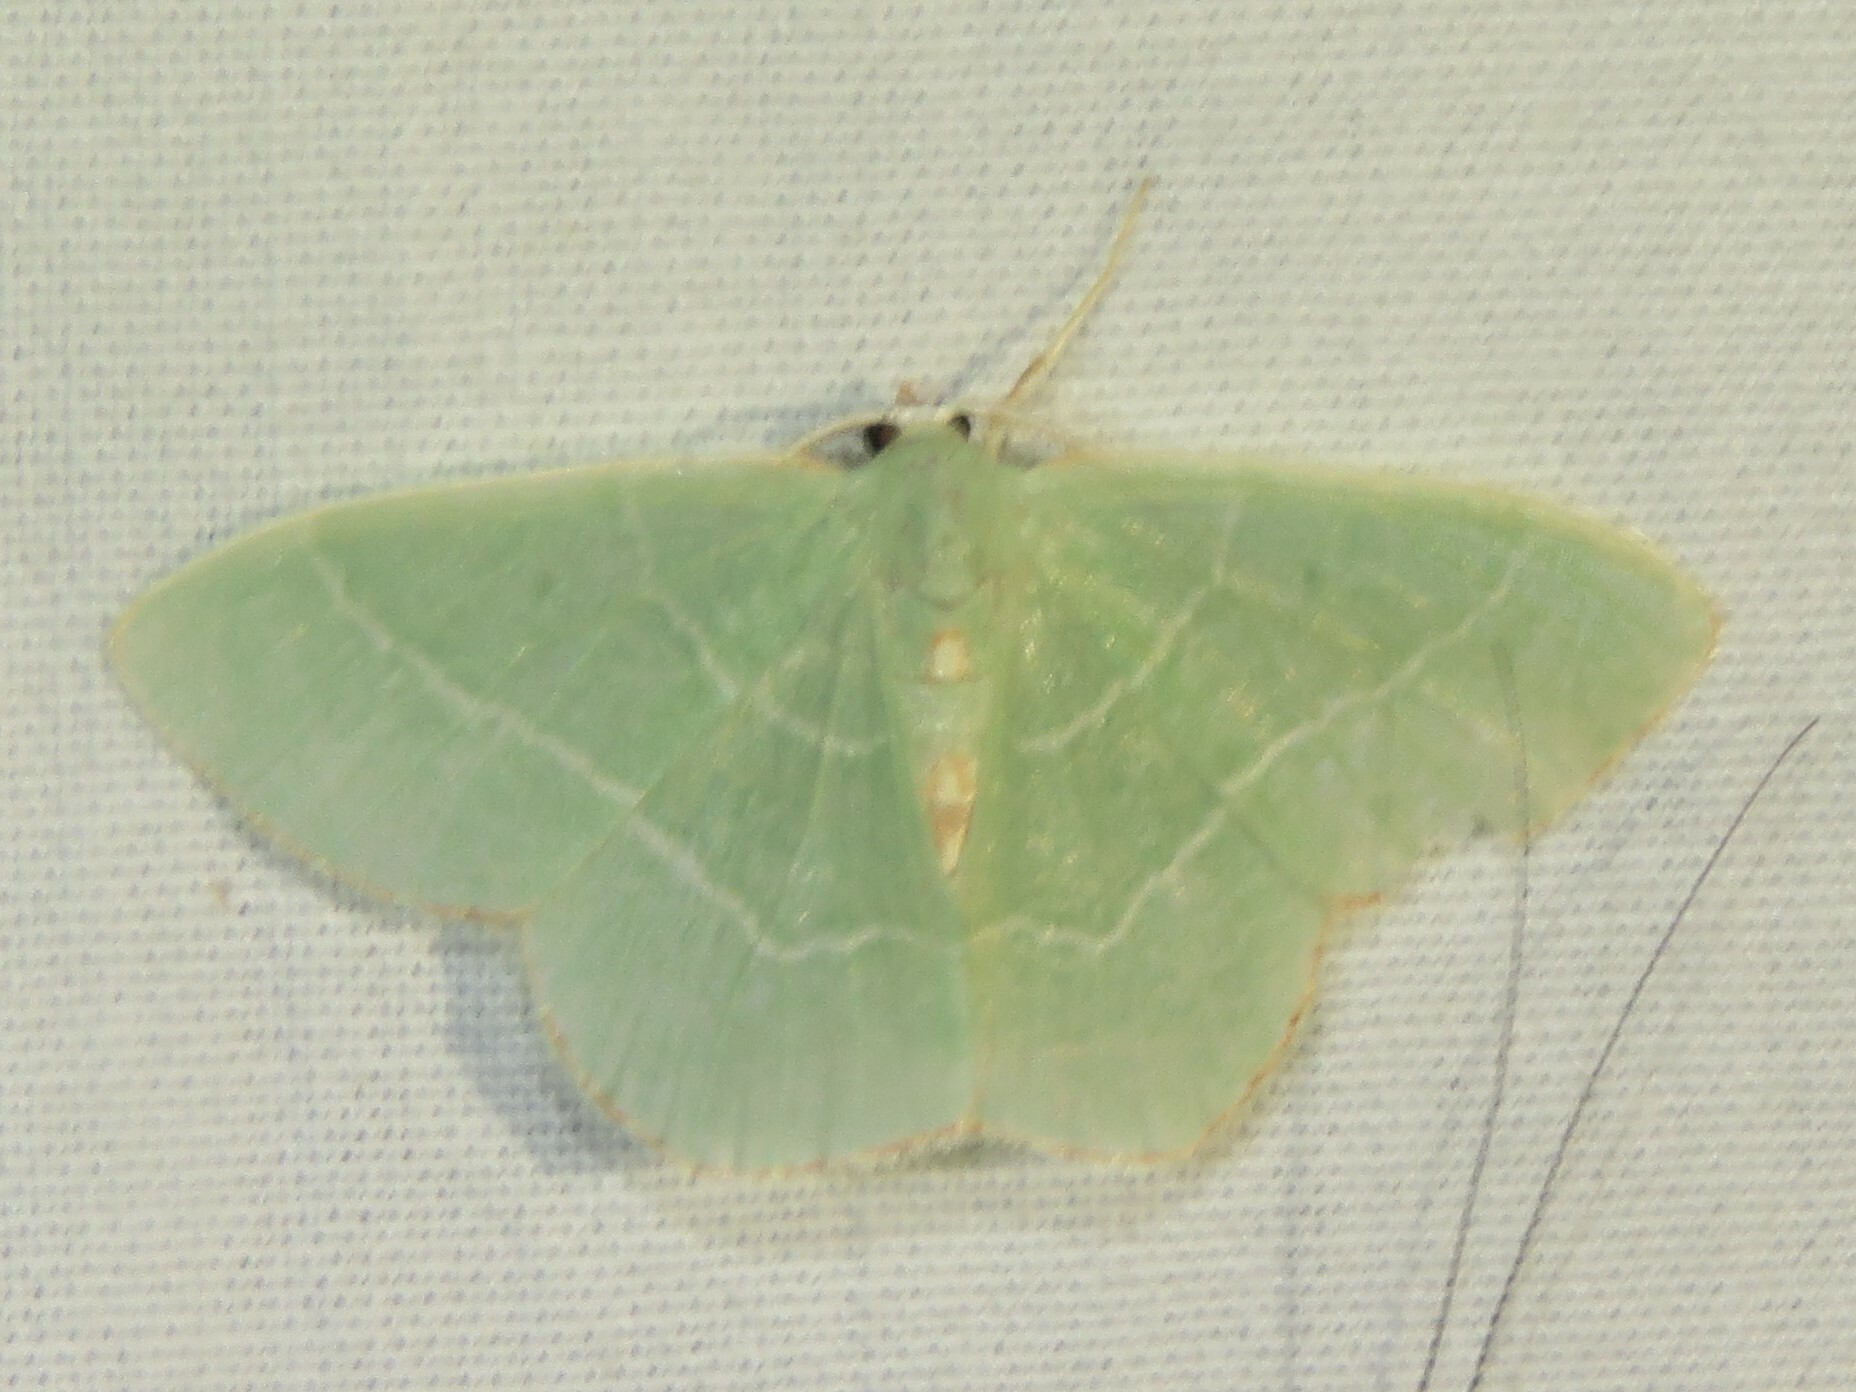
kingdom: Animalia
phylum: Arthropoda
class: Insecta
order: Lepidoptera
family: Geometridae
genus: Nemoria
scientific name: Nemoria bistriaria
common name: Red-fringed emerald
